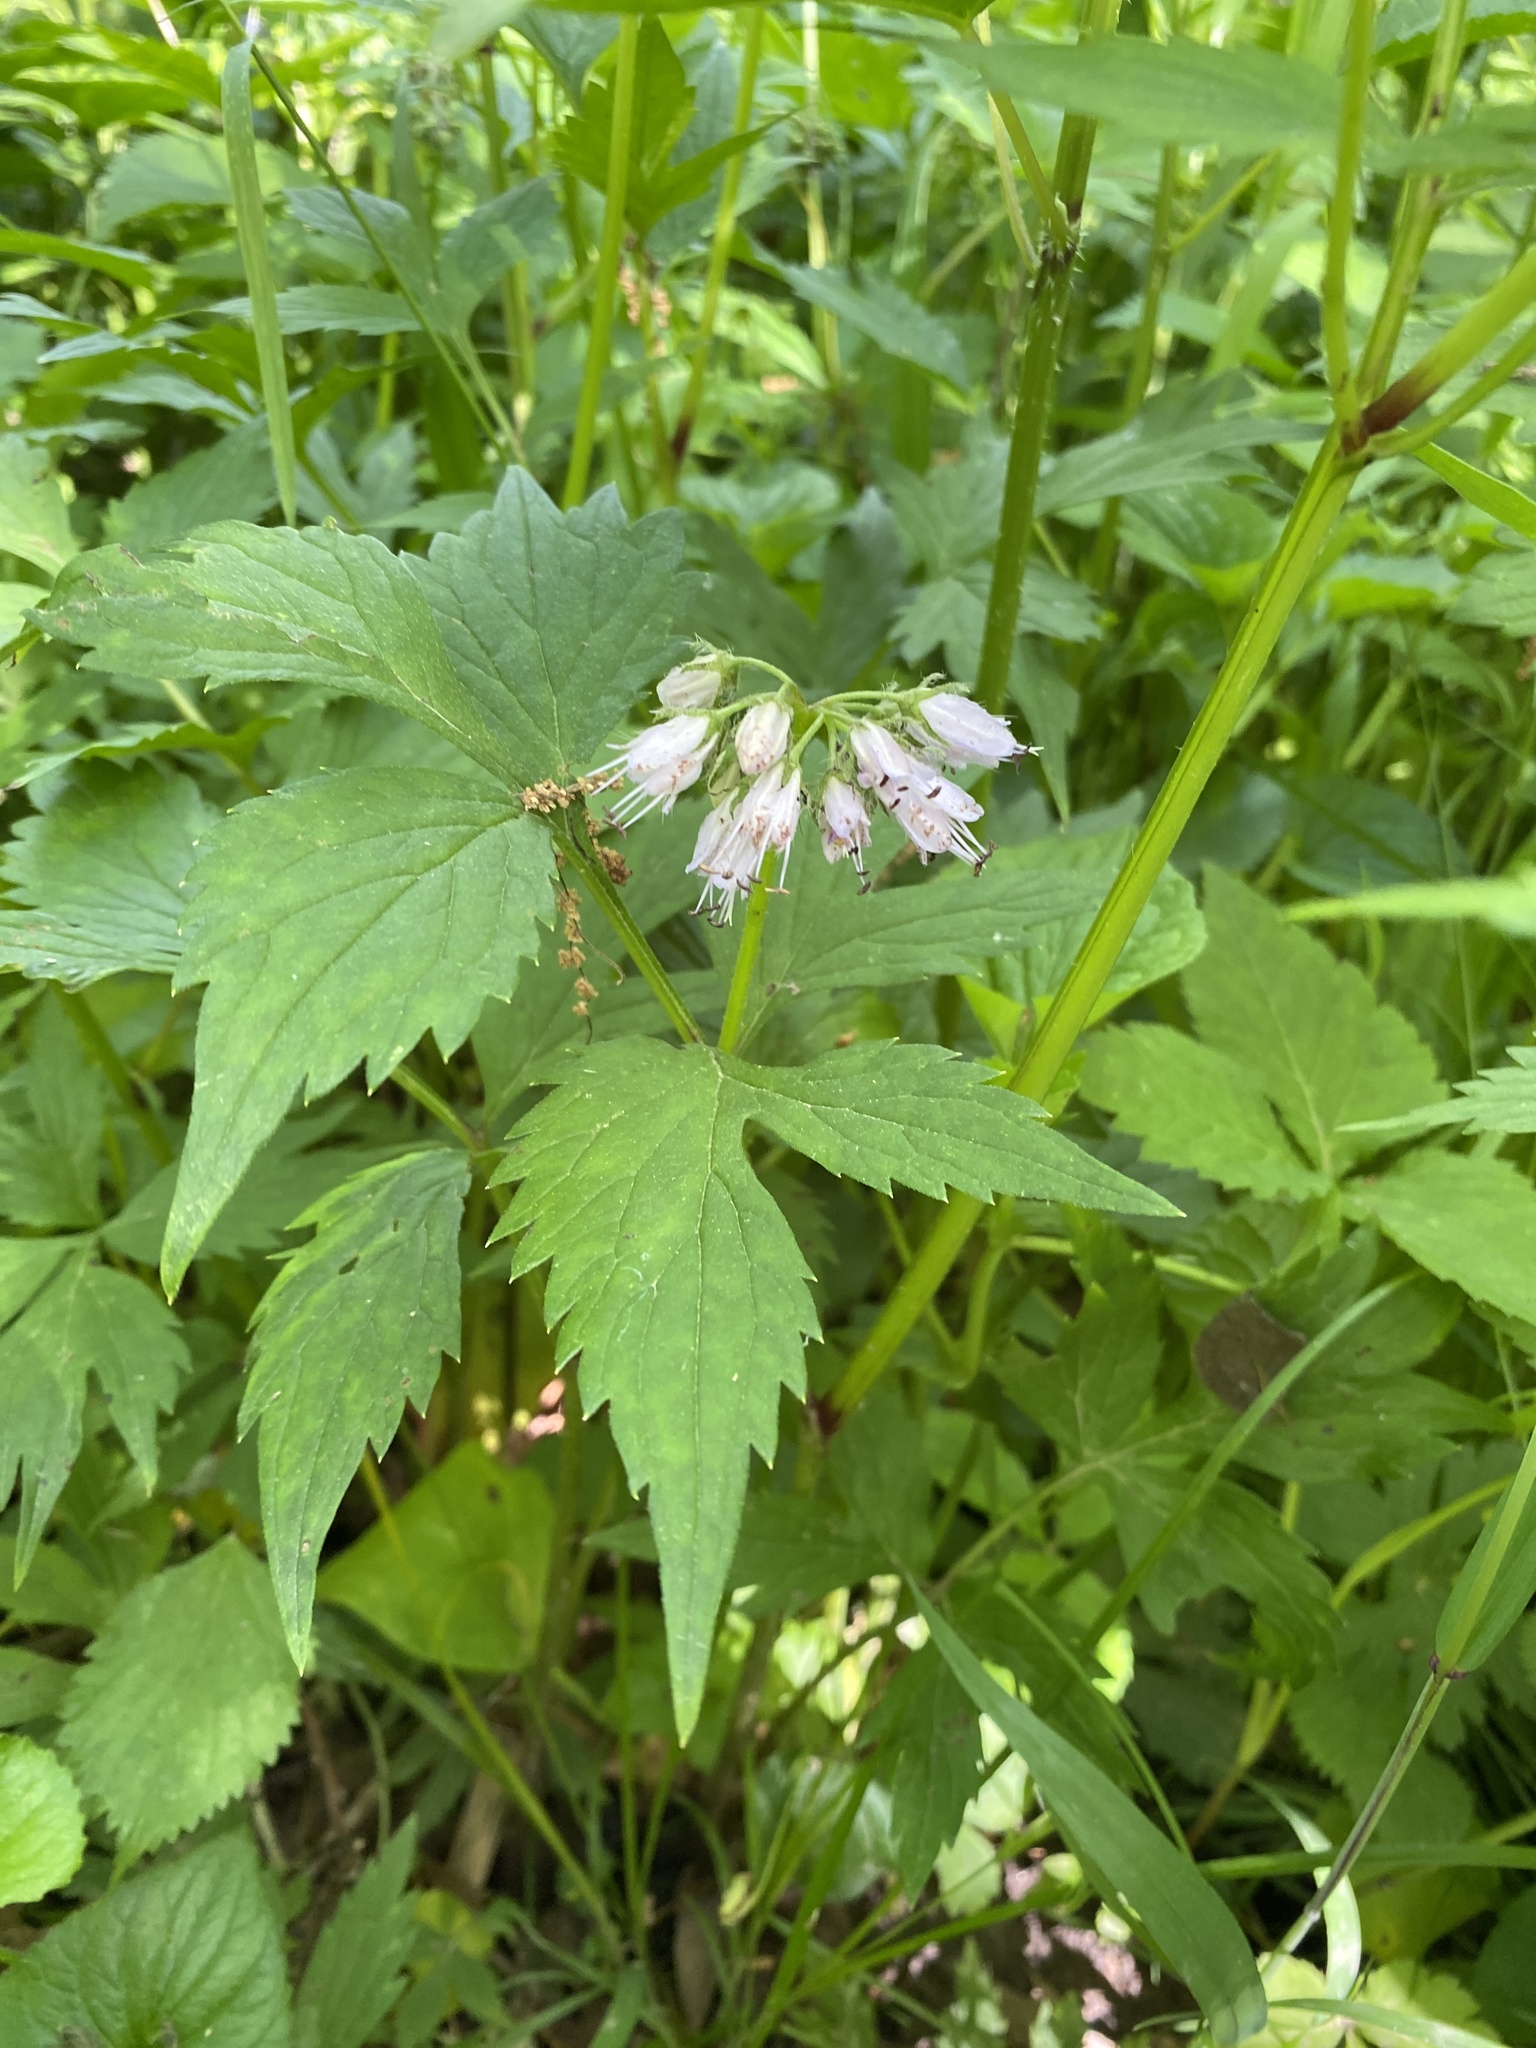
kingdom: Plantae
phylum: Tracheophyta
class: Magnoliopsida
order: Boraginales
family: Hydrophyllaceae
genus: Hydrophyllum
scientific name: Hydrophyllum virginianum
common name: Virginia waterleaf
